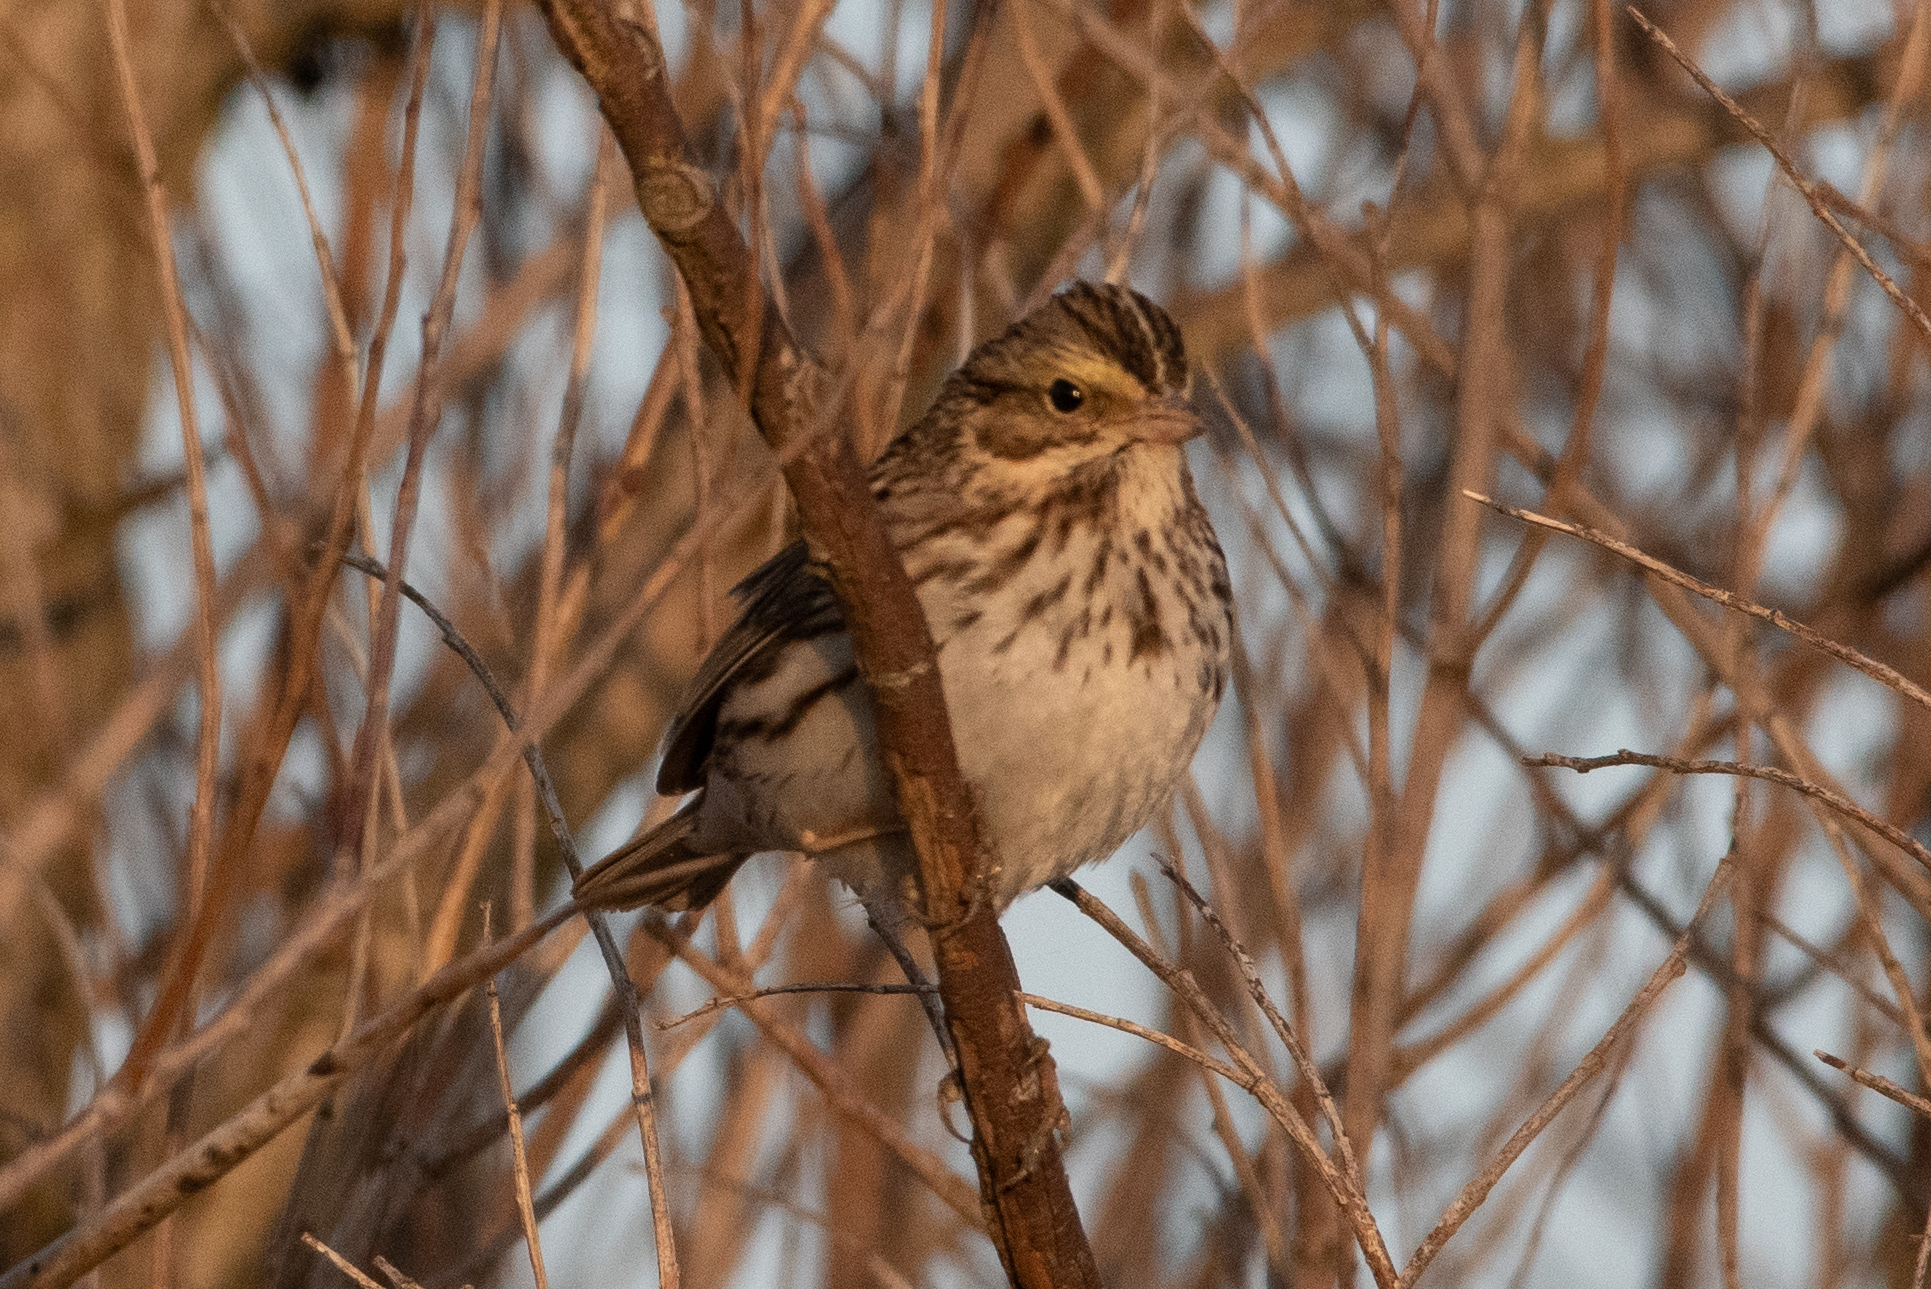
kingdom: Animalia
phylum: Chordata
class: Aves
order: Passeriformes
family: Passerellidae
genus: Passerculus
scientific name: Passerculus sandwichensis
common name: Savannah sparrow
